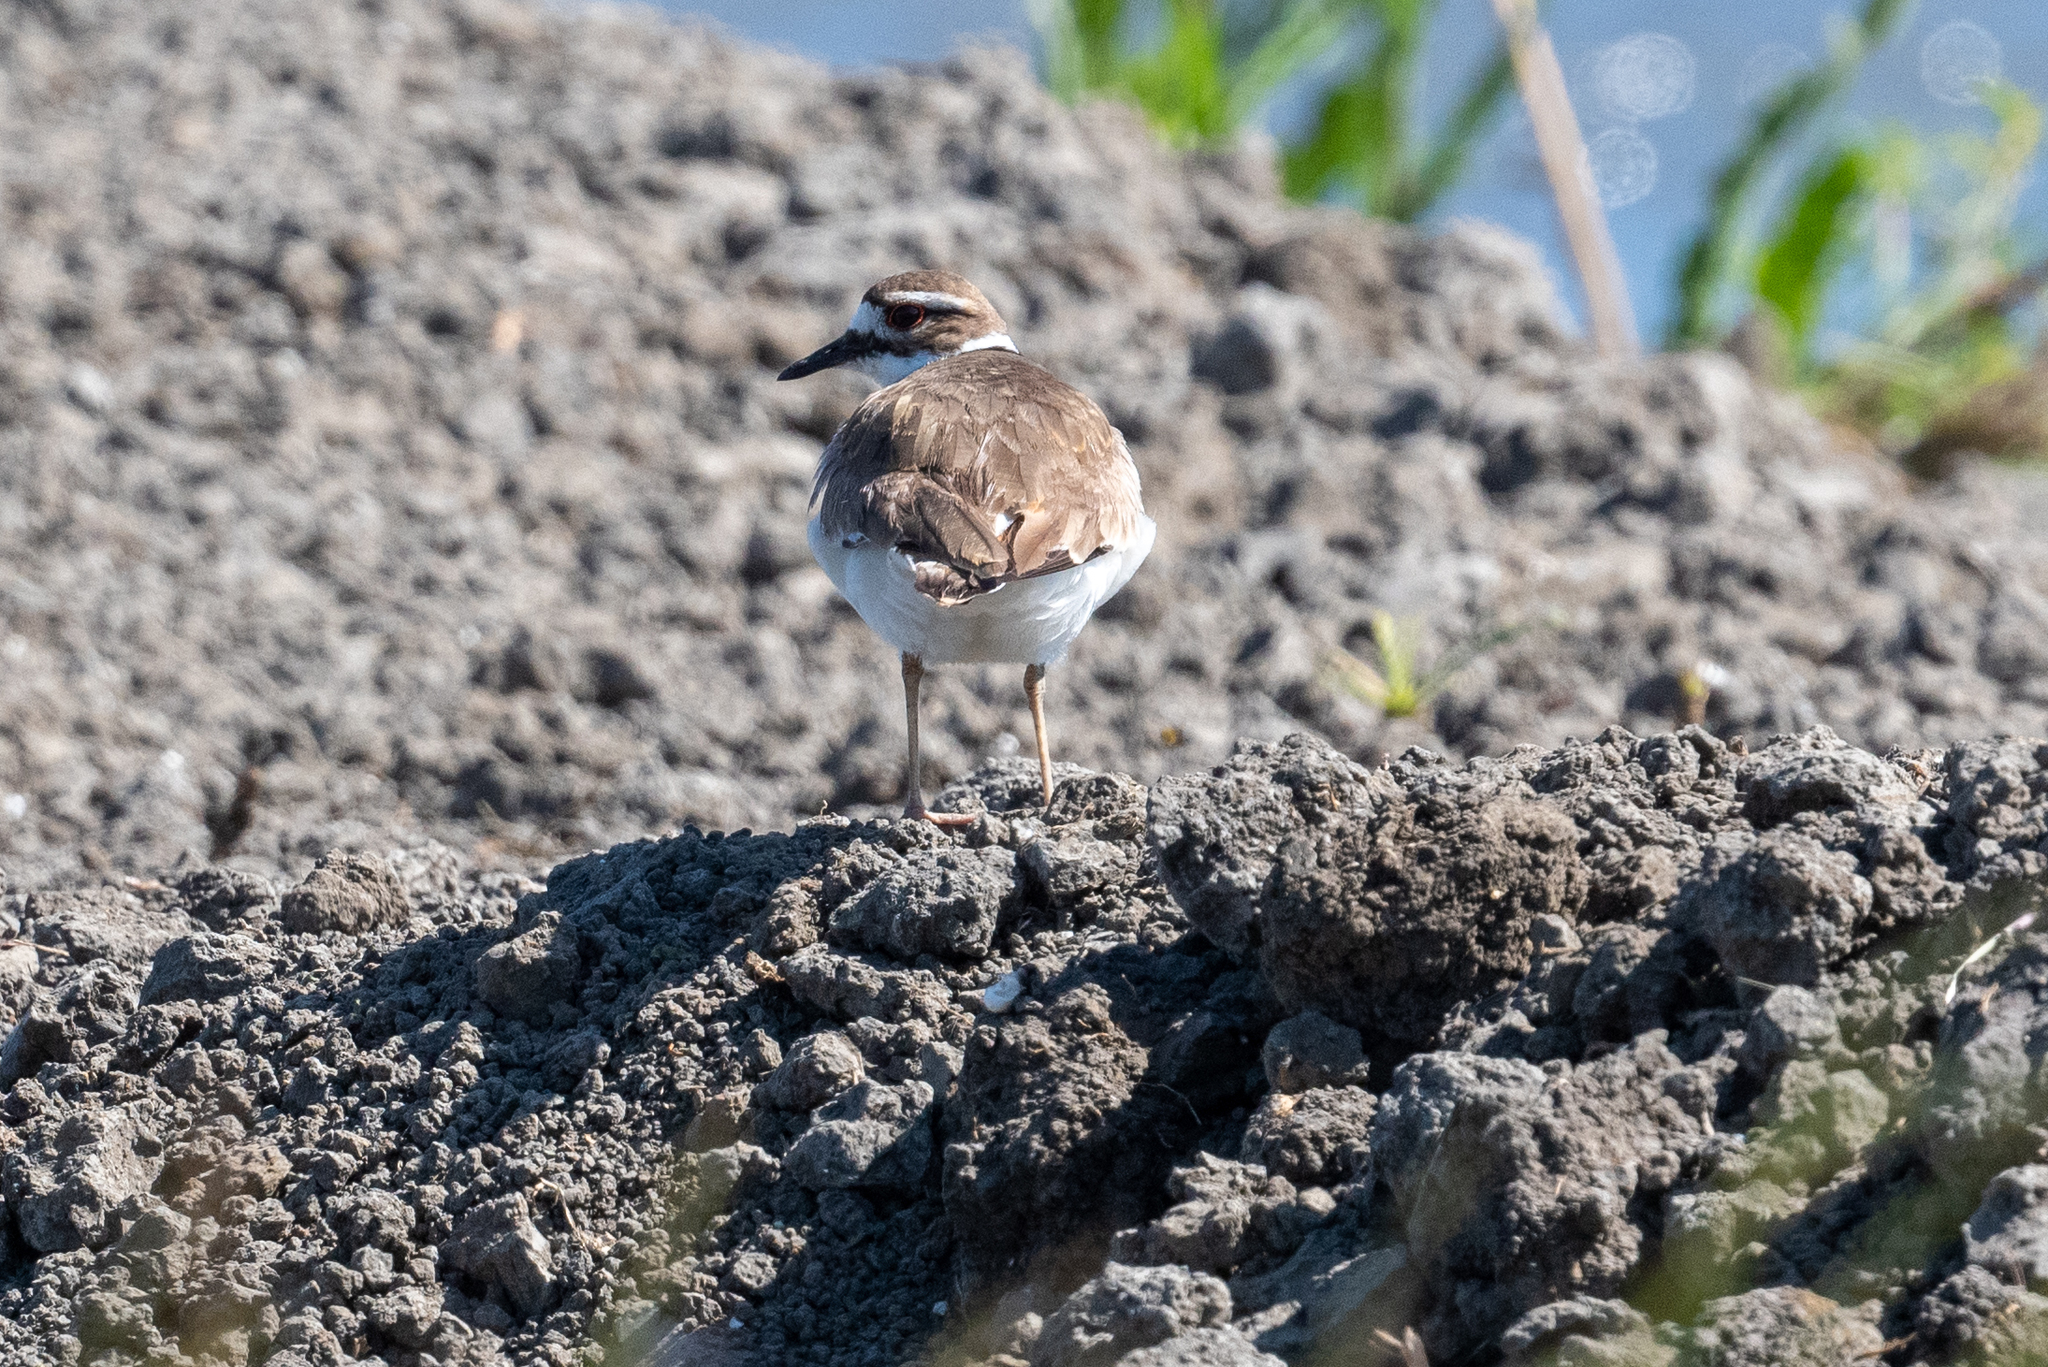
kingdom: Animalia
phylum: Chordata
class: Aves
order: Charadriiformes
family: Charadriidae
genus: Charadrius
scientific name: Charadrius vociferus
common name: Killdeer
